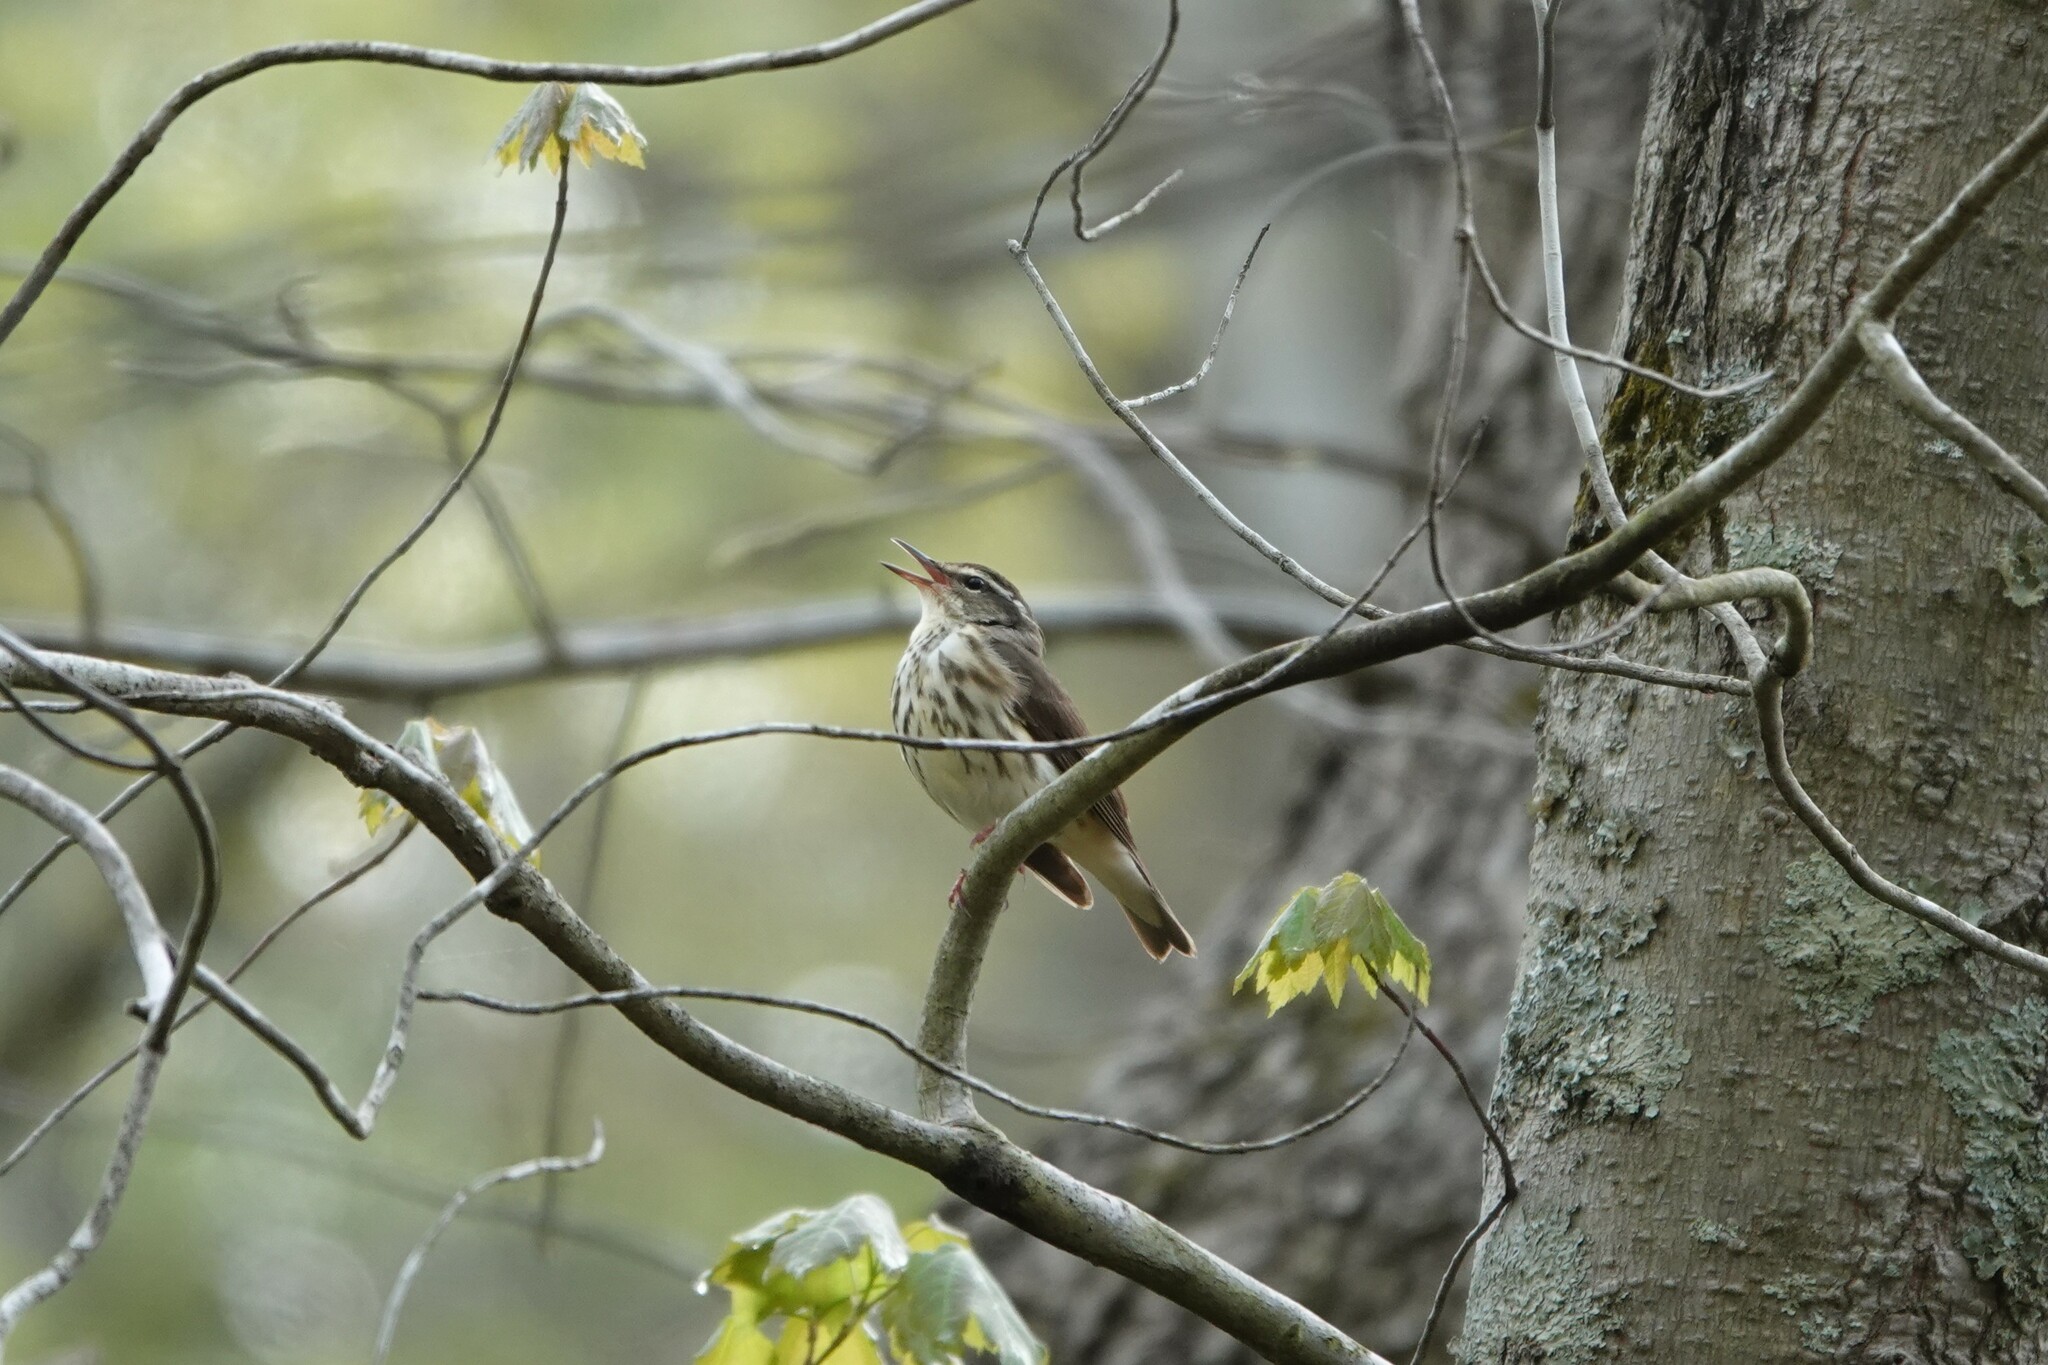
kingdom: Animalia
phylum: Chordata
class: Aves
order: Passeriformes
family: Parulidae
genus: Parkesia
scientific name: Parkesia motacilla
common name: Louisiana waterthrush
